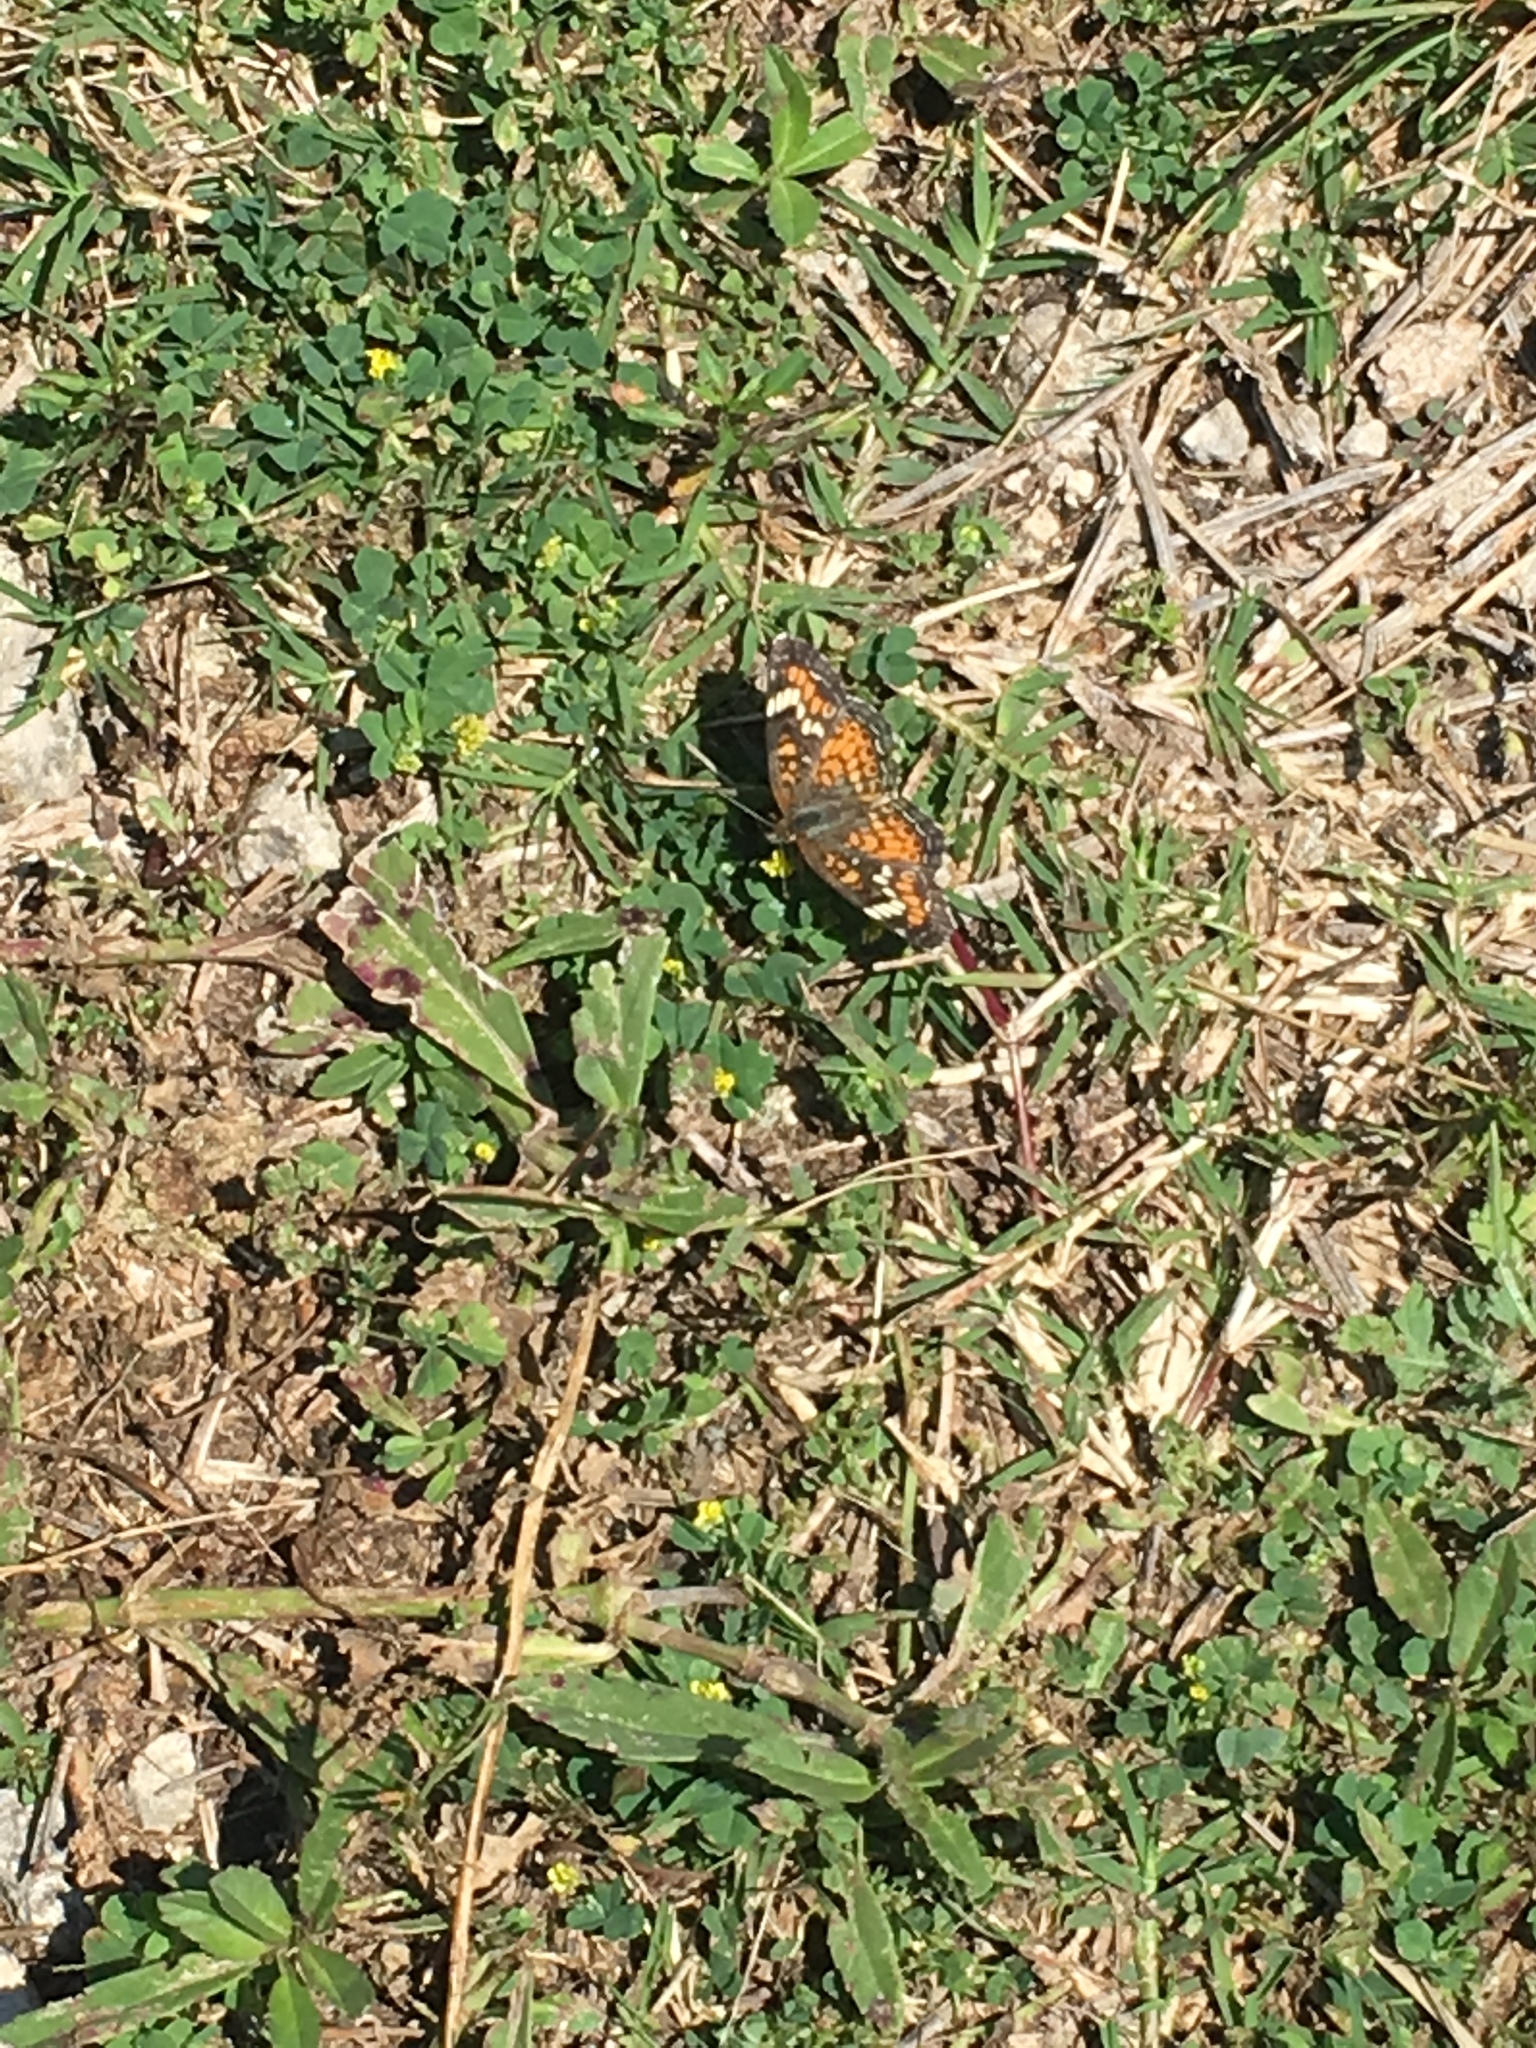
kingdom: Animalia
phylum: Arthropoda
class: Insecta
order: Lepidoptera
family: Nymphalidae
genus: Phyciodes
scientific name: Phyciodes phaon
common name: Phaon crescent
